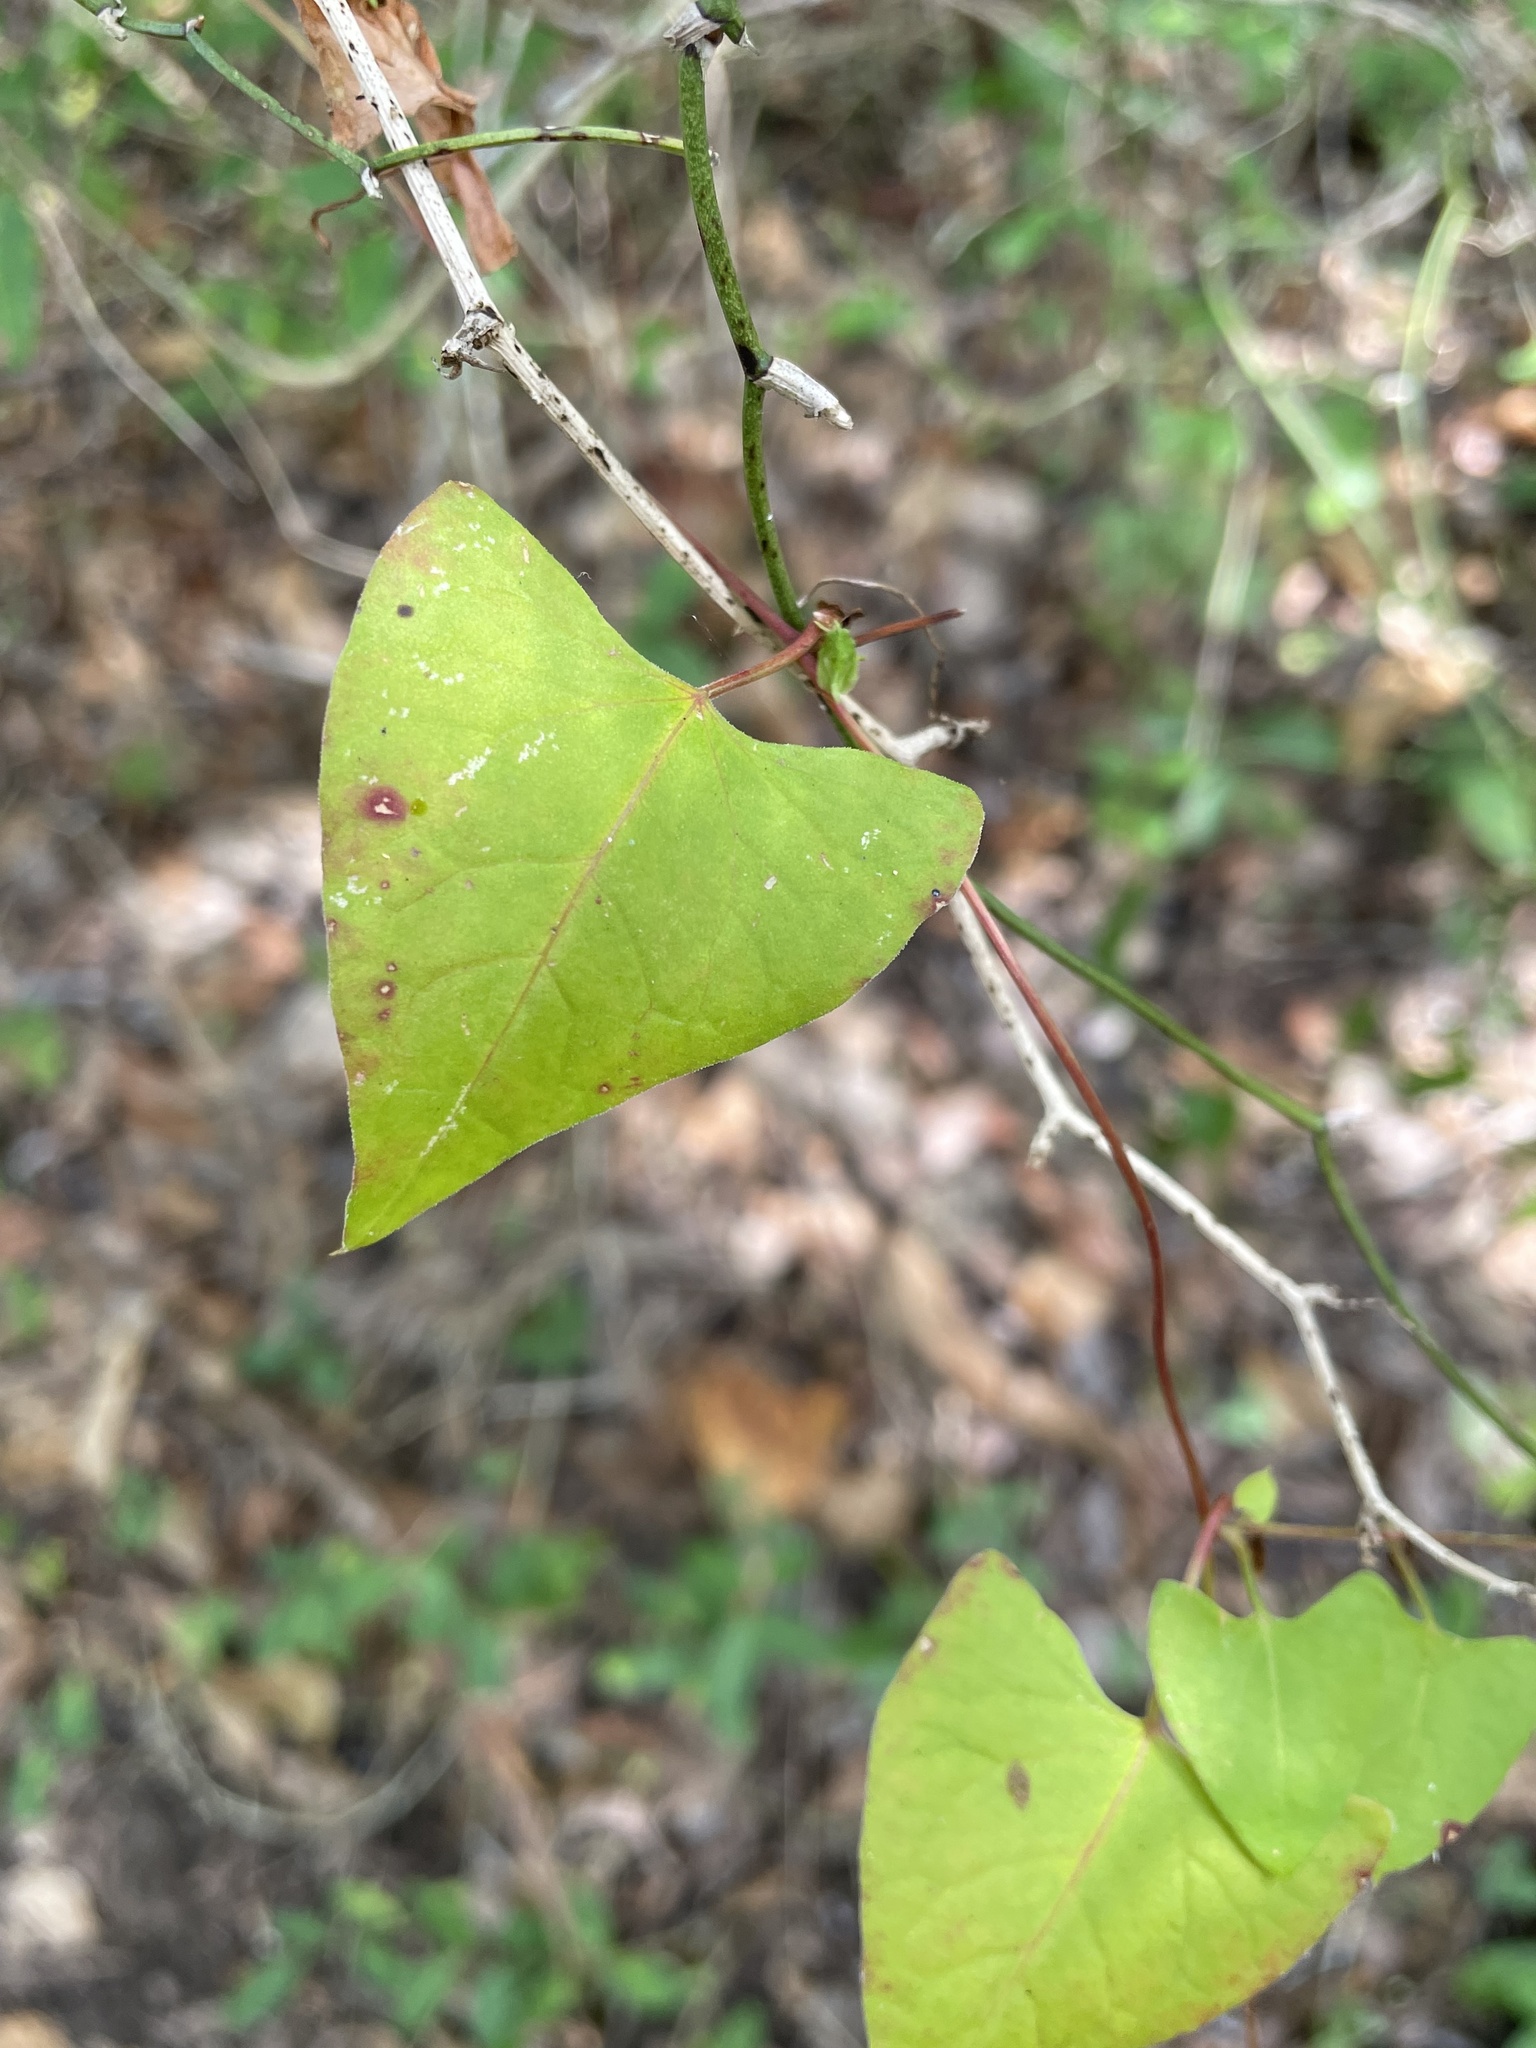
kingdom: Plantae
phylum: Tracheophyta
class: Magnoliopsida
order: Cucurbitales
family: Cucurbitaceae
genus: Melothria
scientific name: Melothria pendula
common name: Creeping-cucumber
